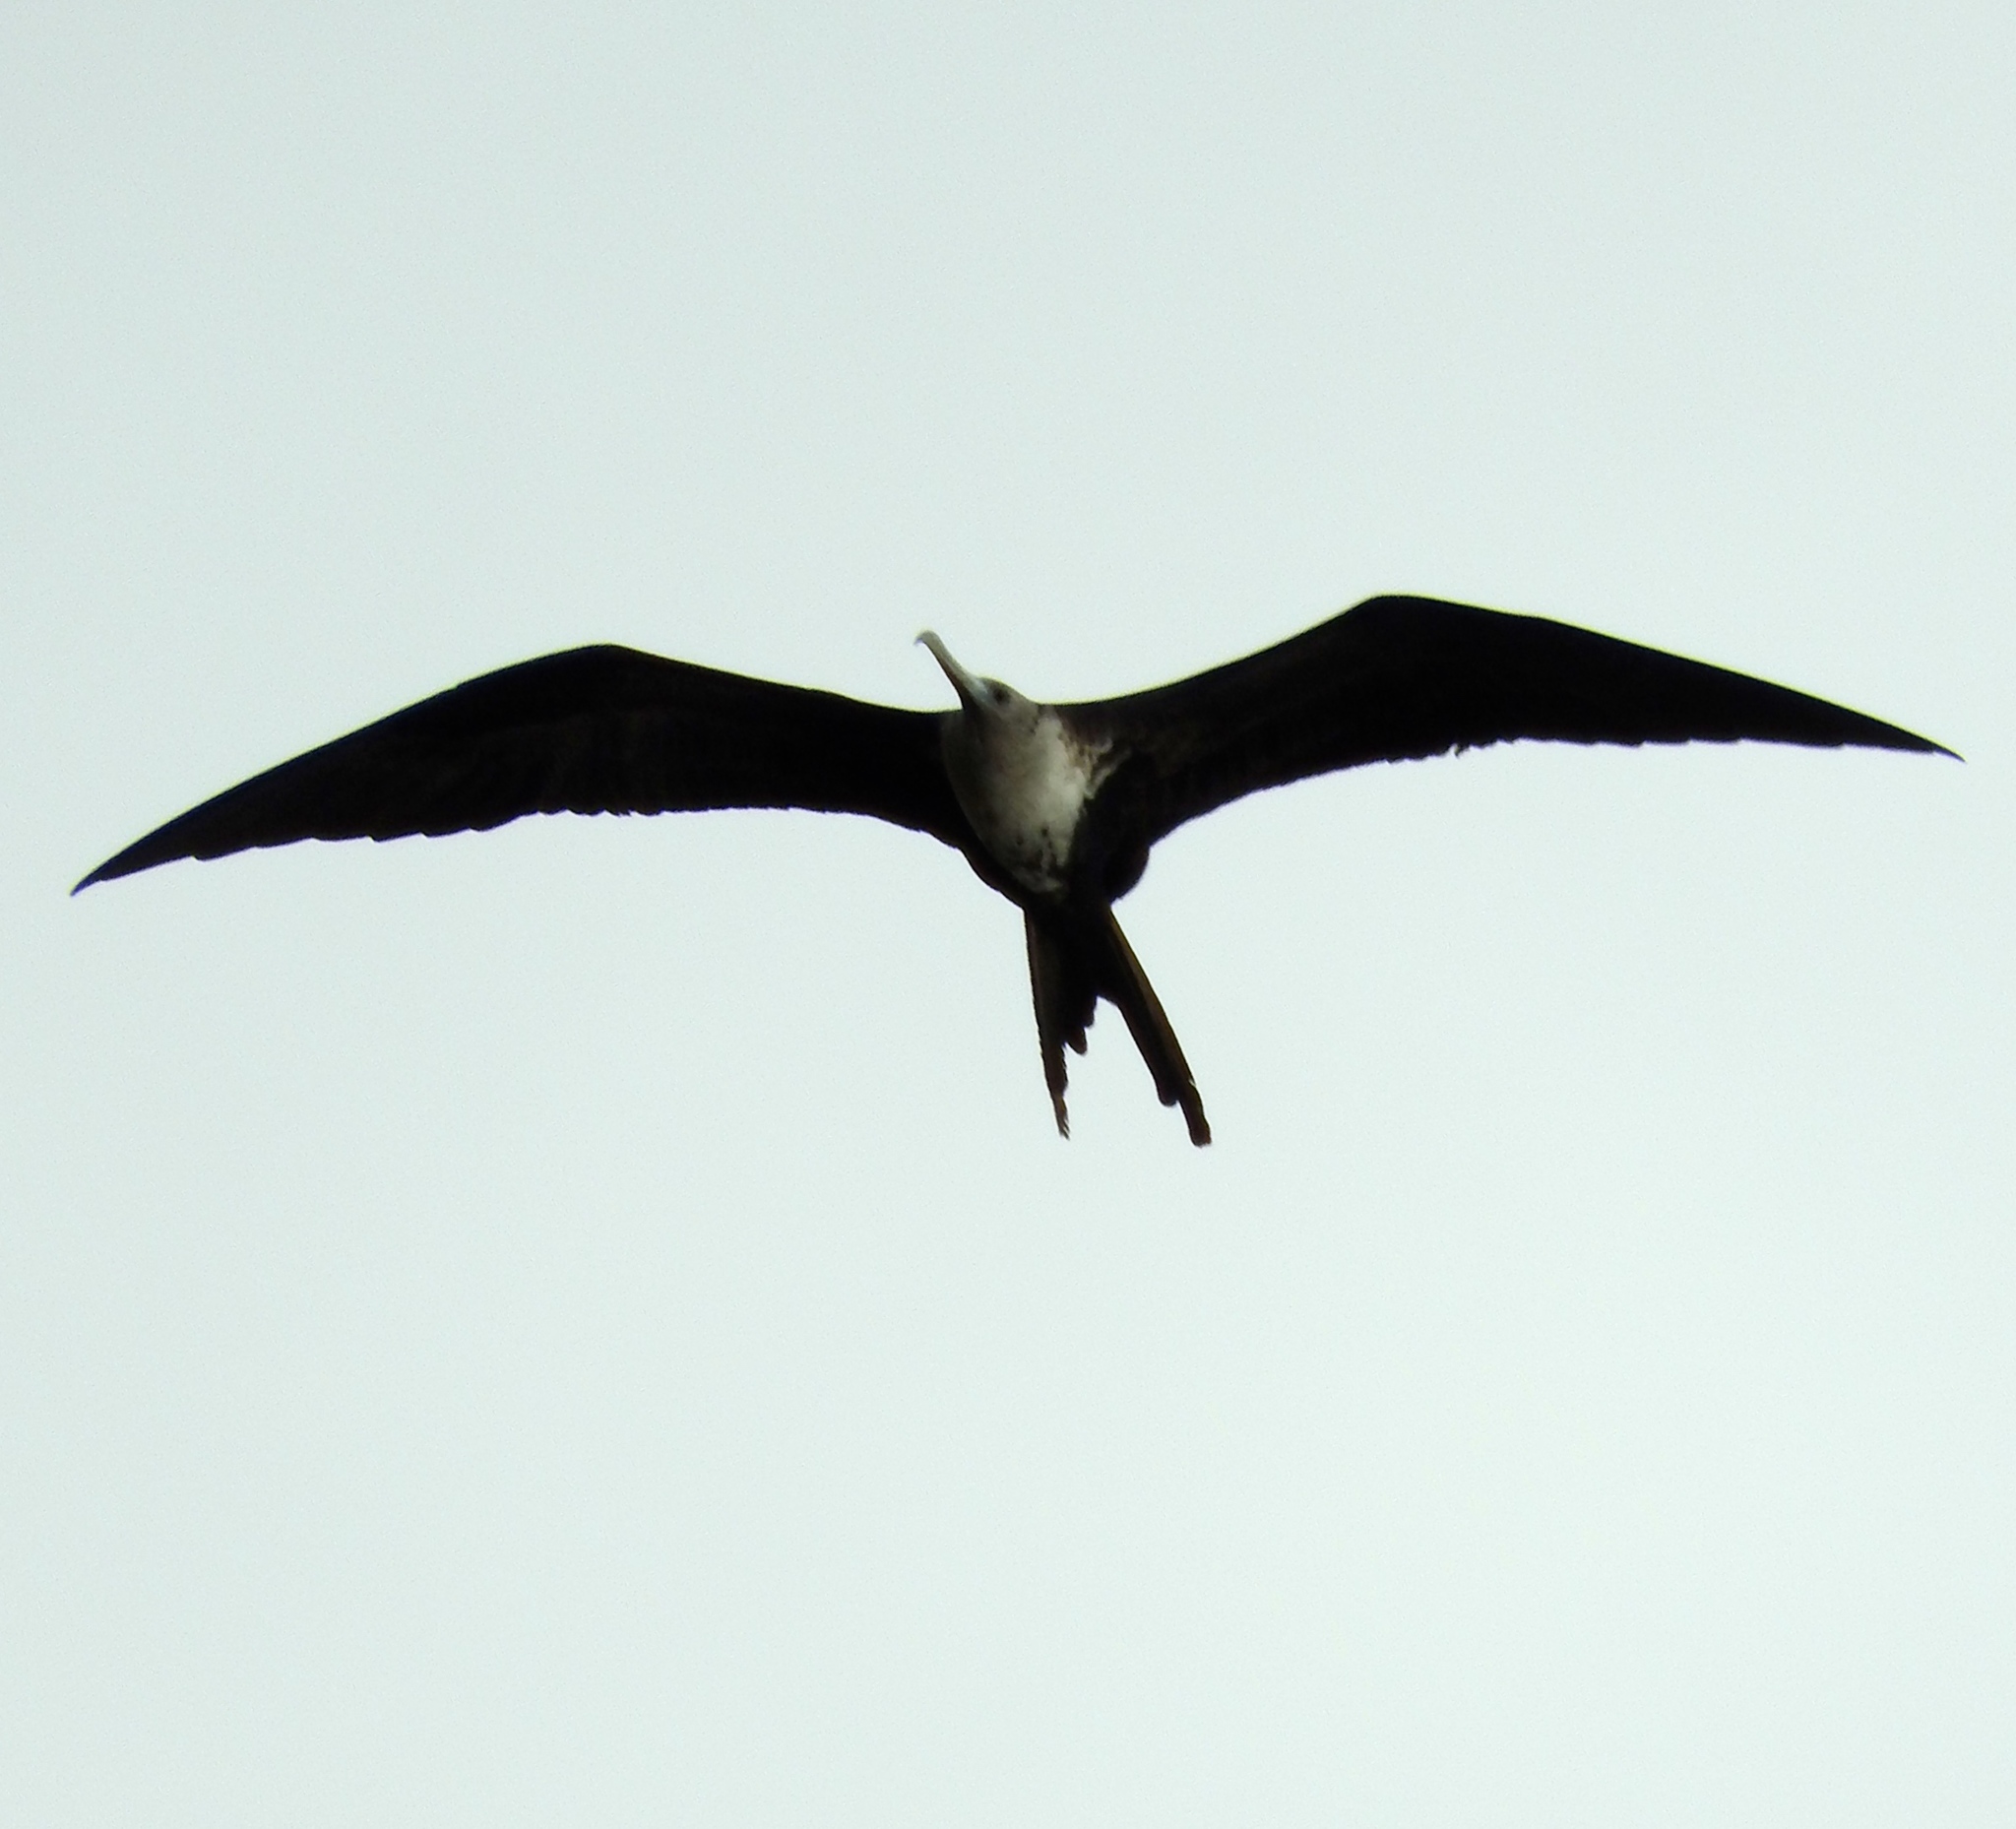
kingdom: Animalia
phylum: Chordata
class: Aves
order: Suliformes
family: Fregatidae
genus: Fregata
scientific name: Fregata magnificens
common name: Magnificent frigatebird
